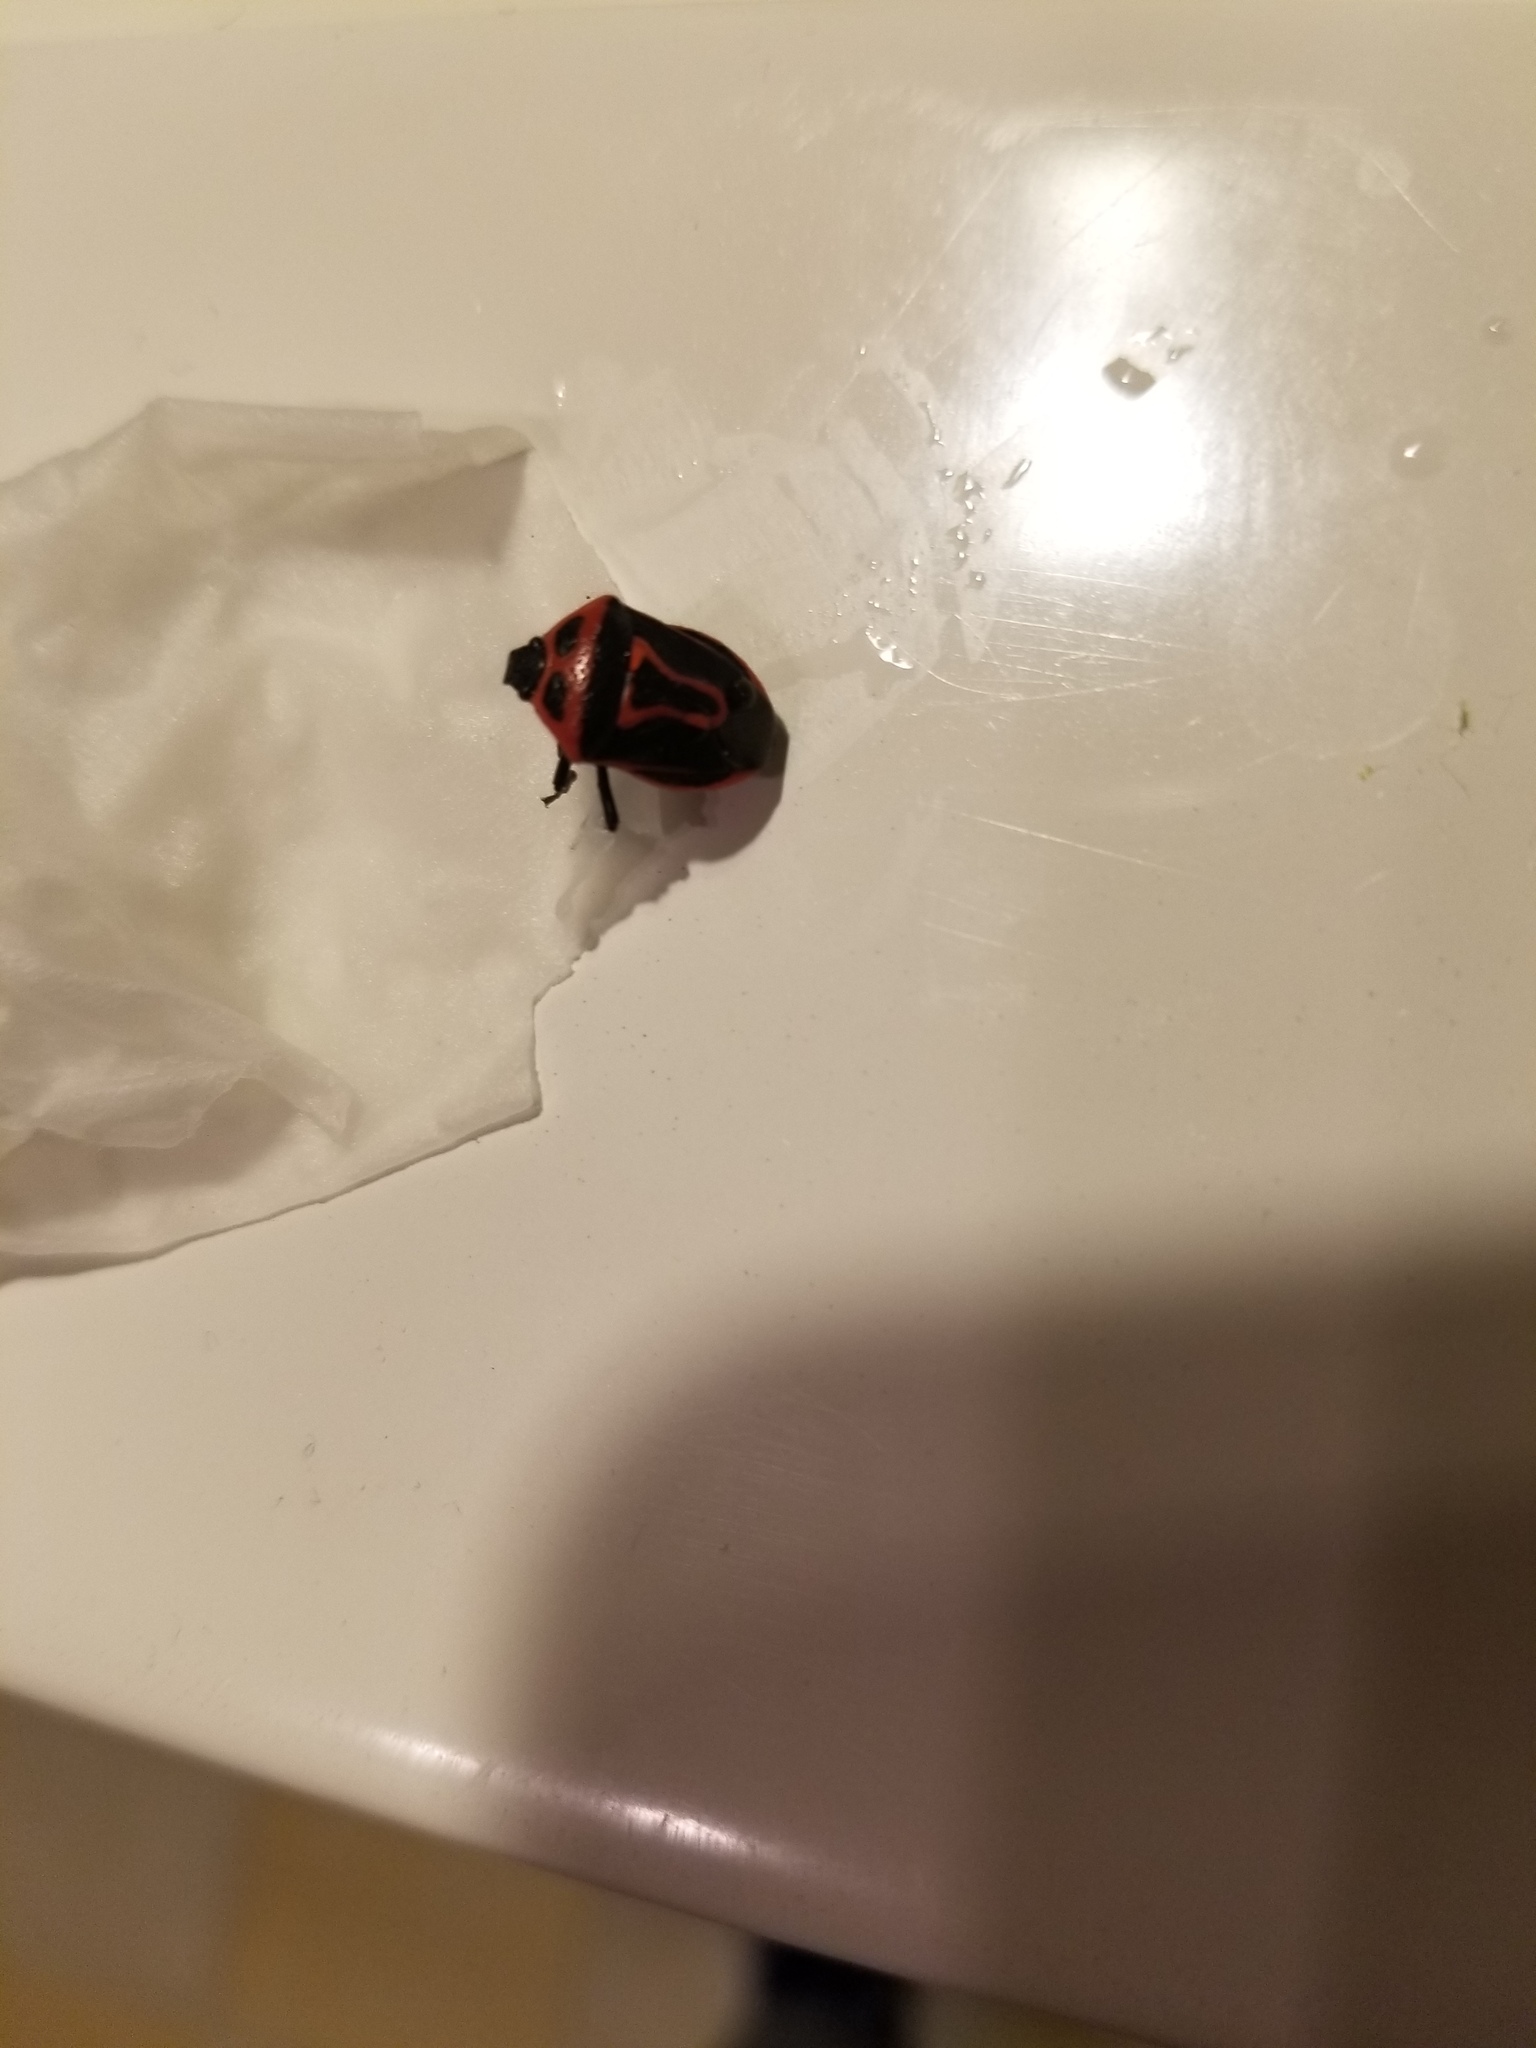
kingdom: Animalia
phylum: Arthropoda
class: Insecta
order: Hemiptera
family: Pentatomidae
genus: Perillus
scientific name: Perillus bioculatus
